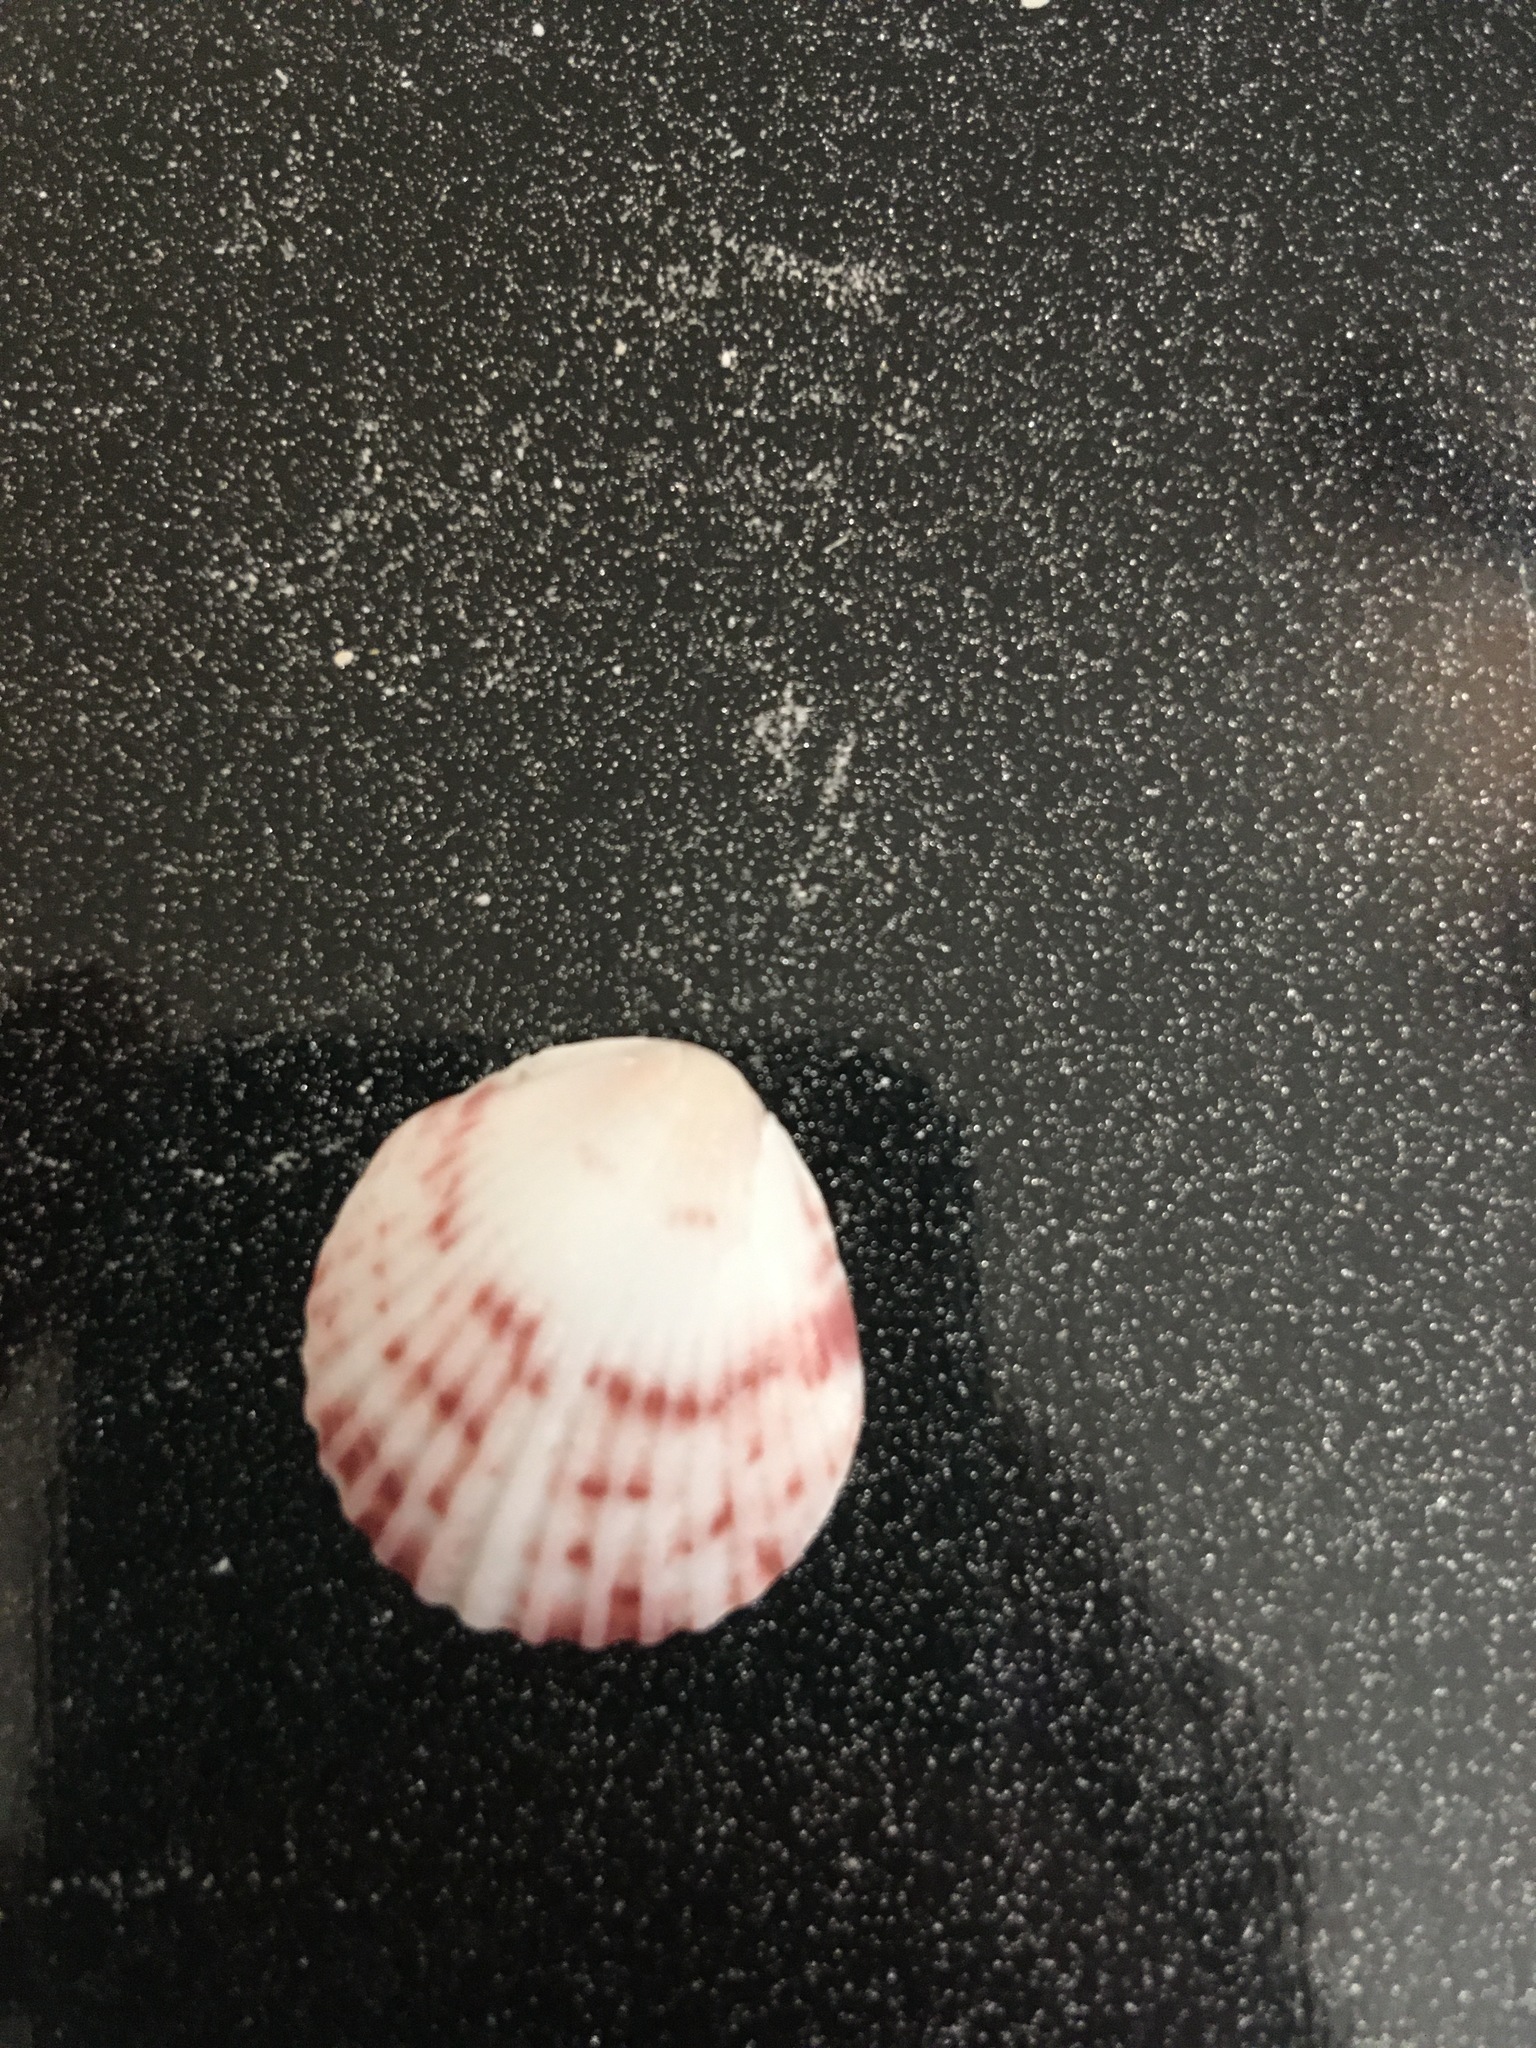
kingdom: Animalia
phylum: Mollusca
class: Bivalvia
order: Pectinida
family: Pectinidae
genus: Argopecten
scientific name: Argopecten gibbus
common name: Atlantic calico scallop
